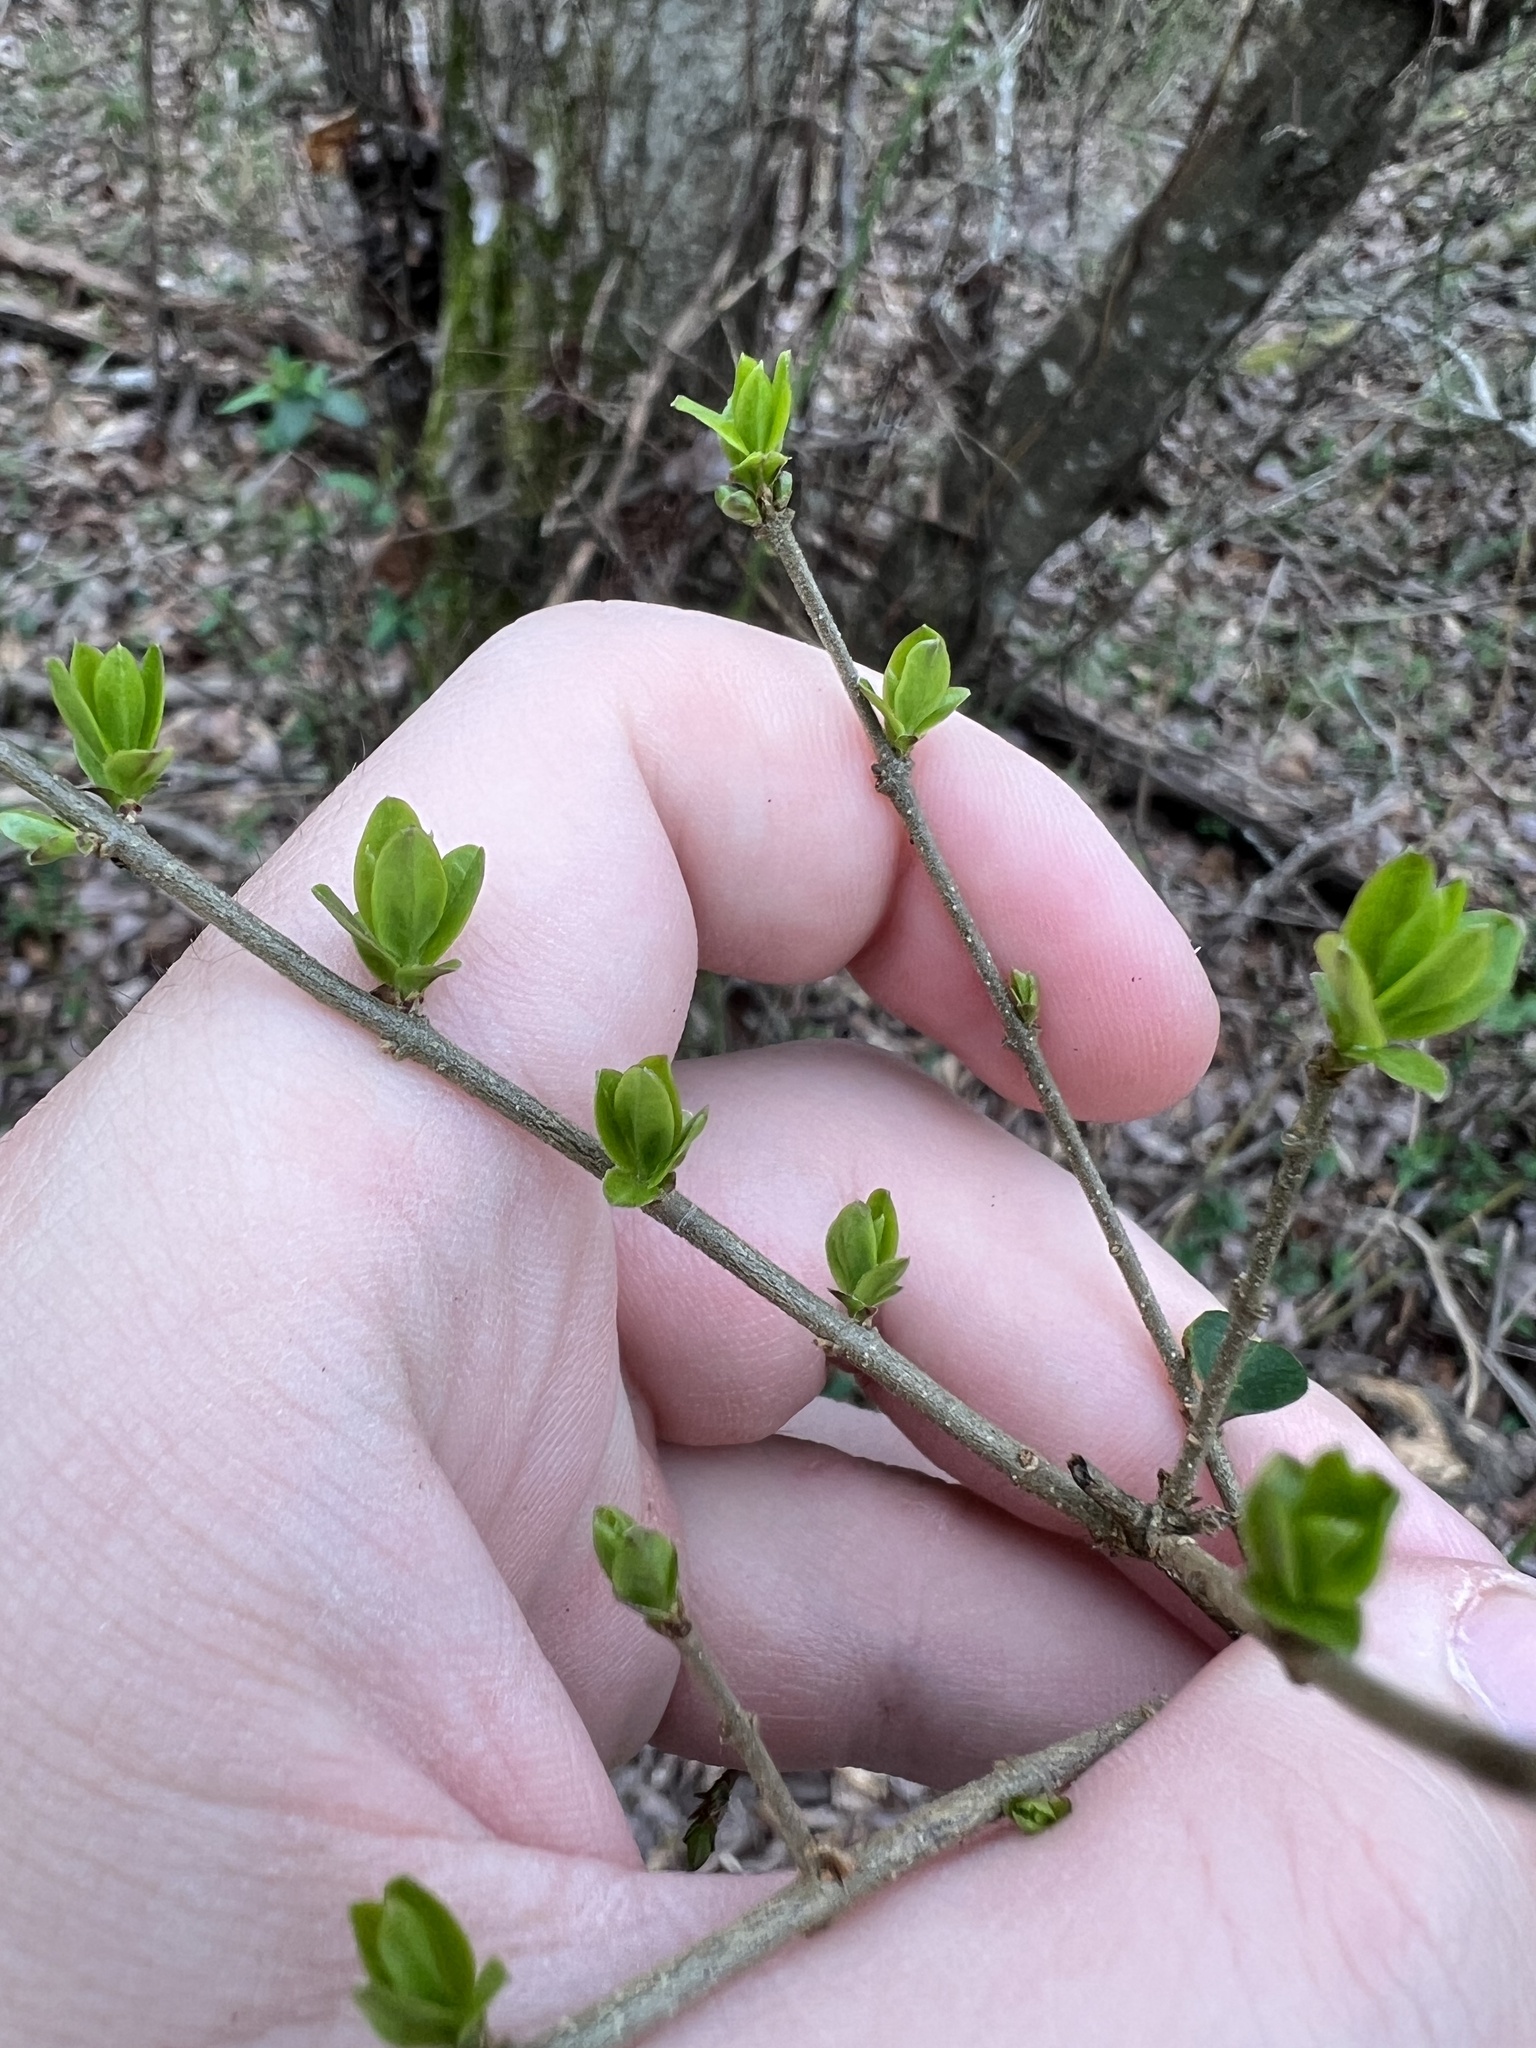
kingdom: Plantae
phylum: Tracheophyta
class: Magnoliopsida
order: Lamiales
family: Oleaceae
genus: Ligustrum
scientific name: Ligustrum
